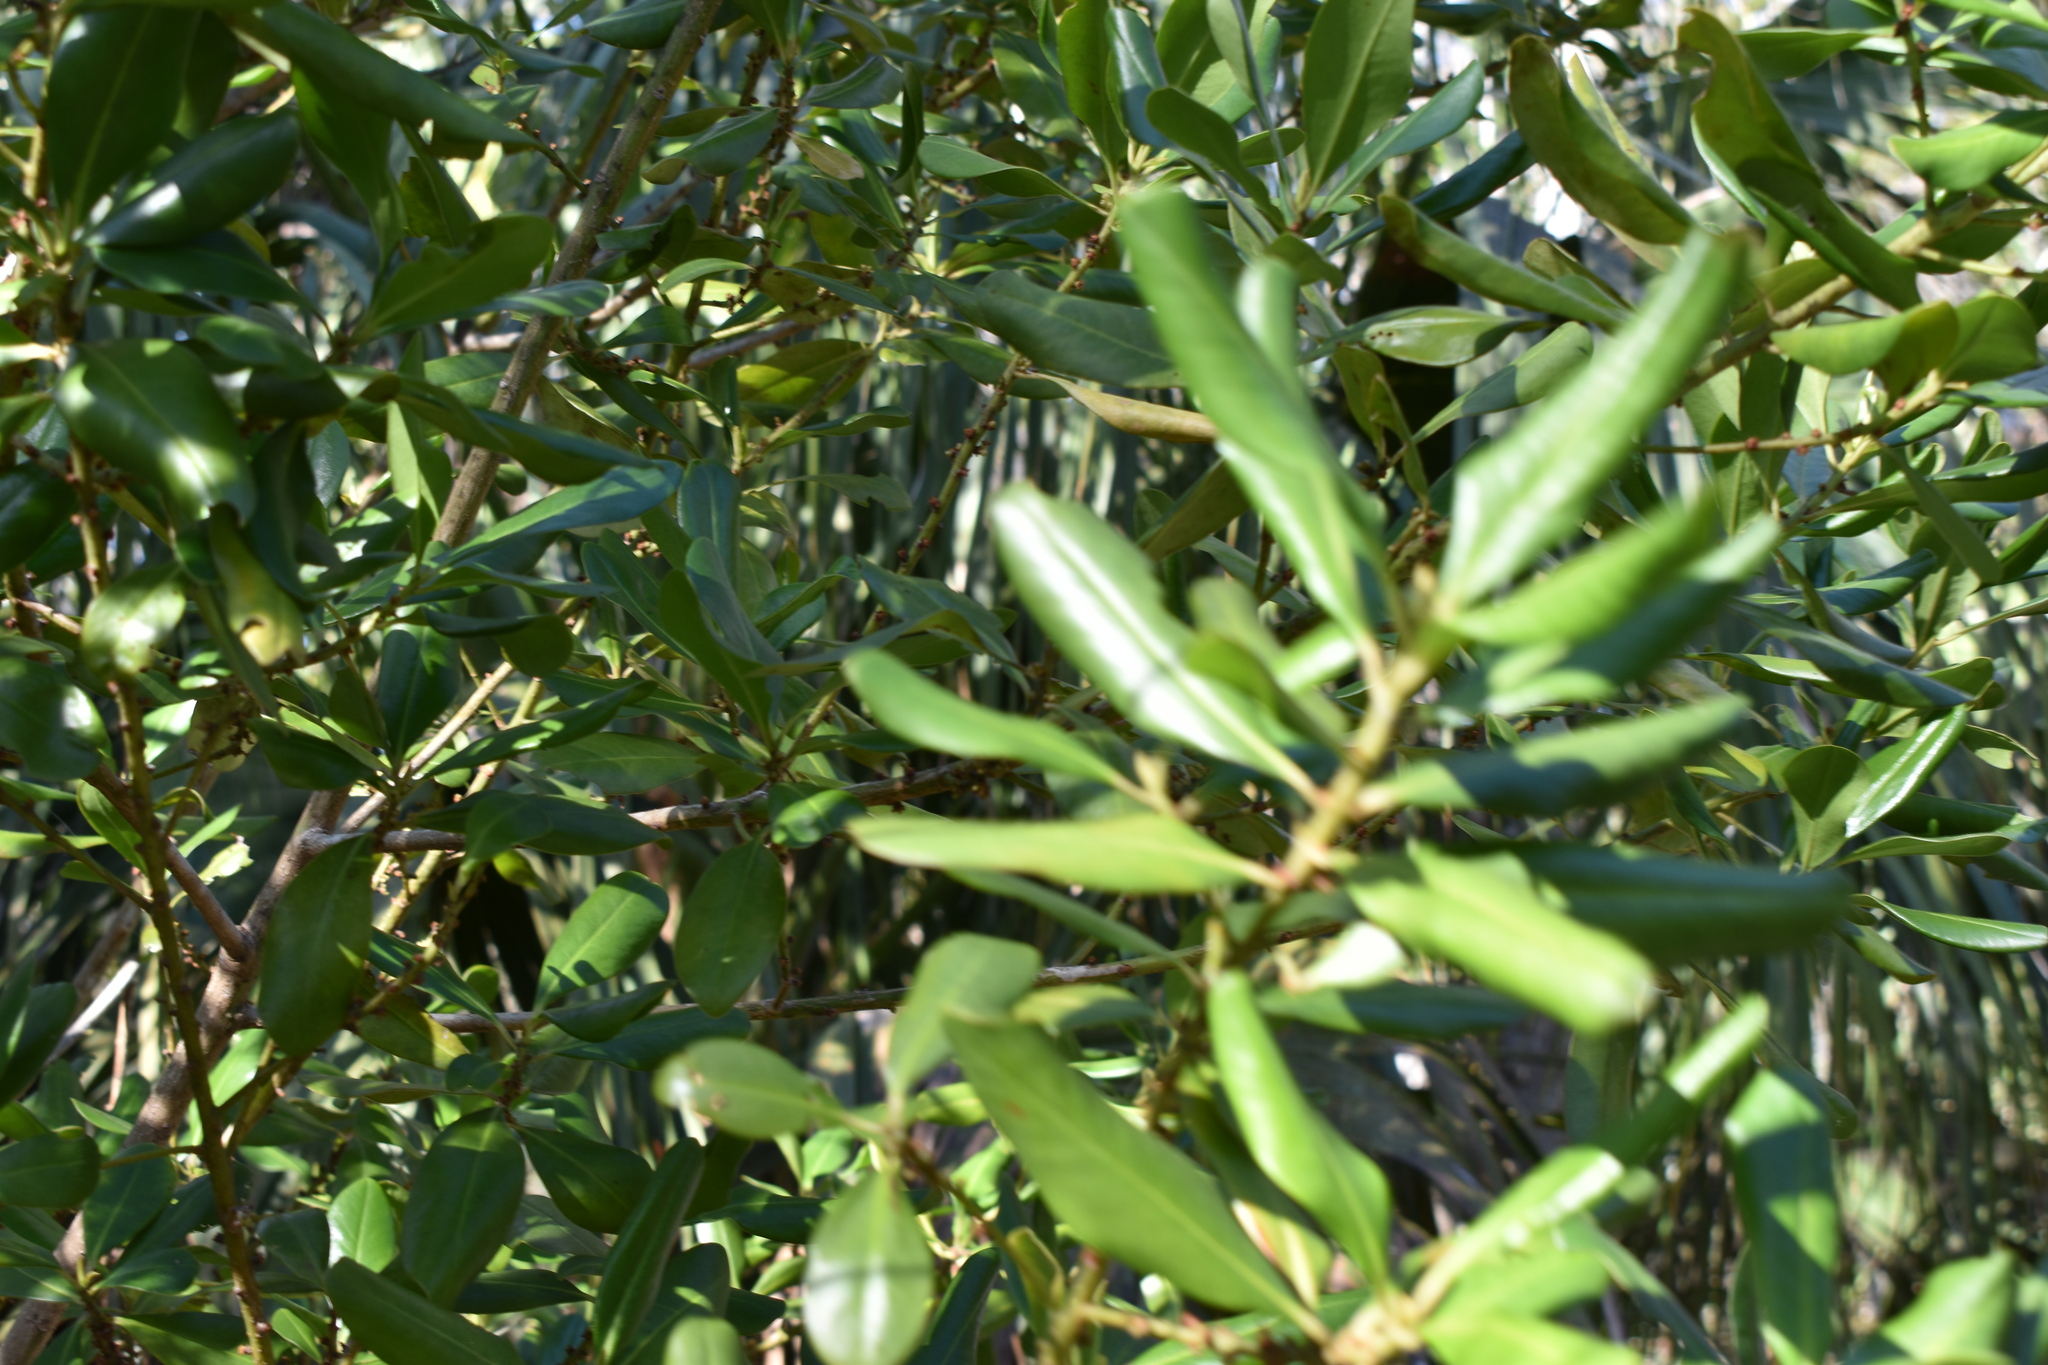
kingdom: Plantae
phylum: Tracheophyta
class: Magnoliopsida
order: Ericales
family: Primulaceae
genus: Myrsine
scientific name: Myrsine floridana
